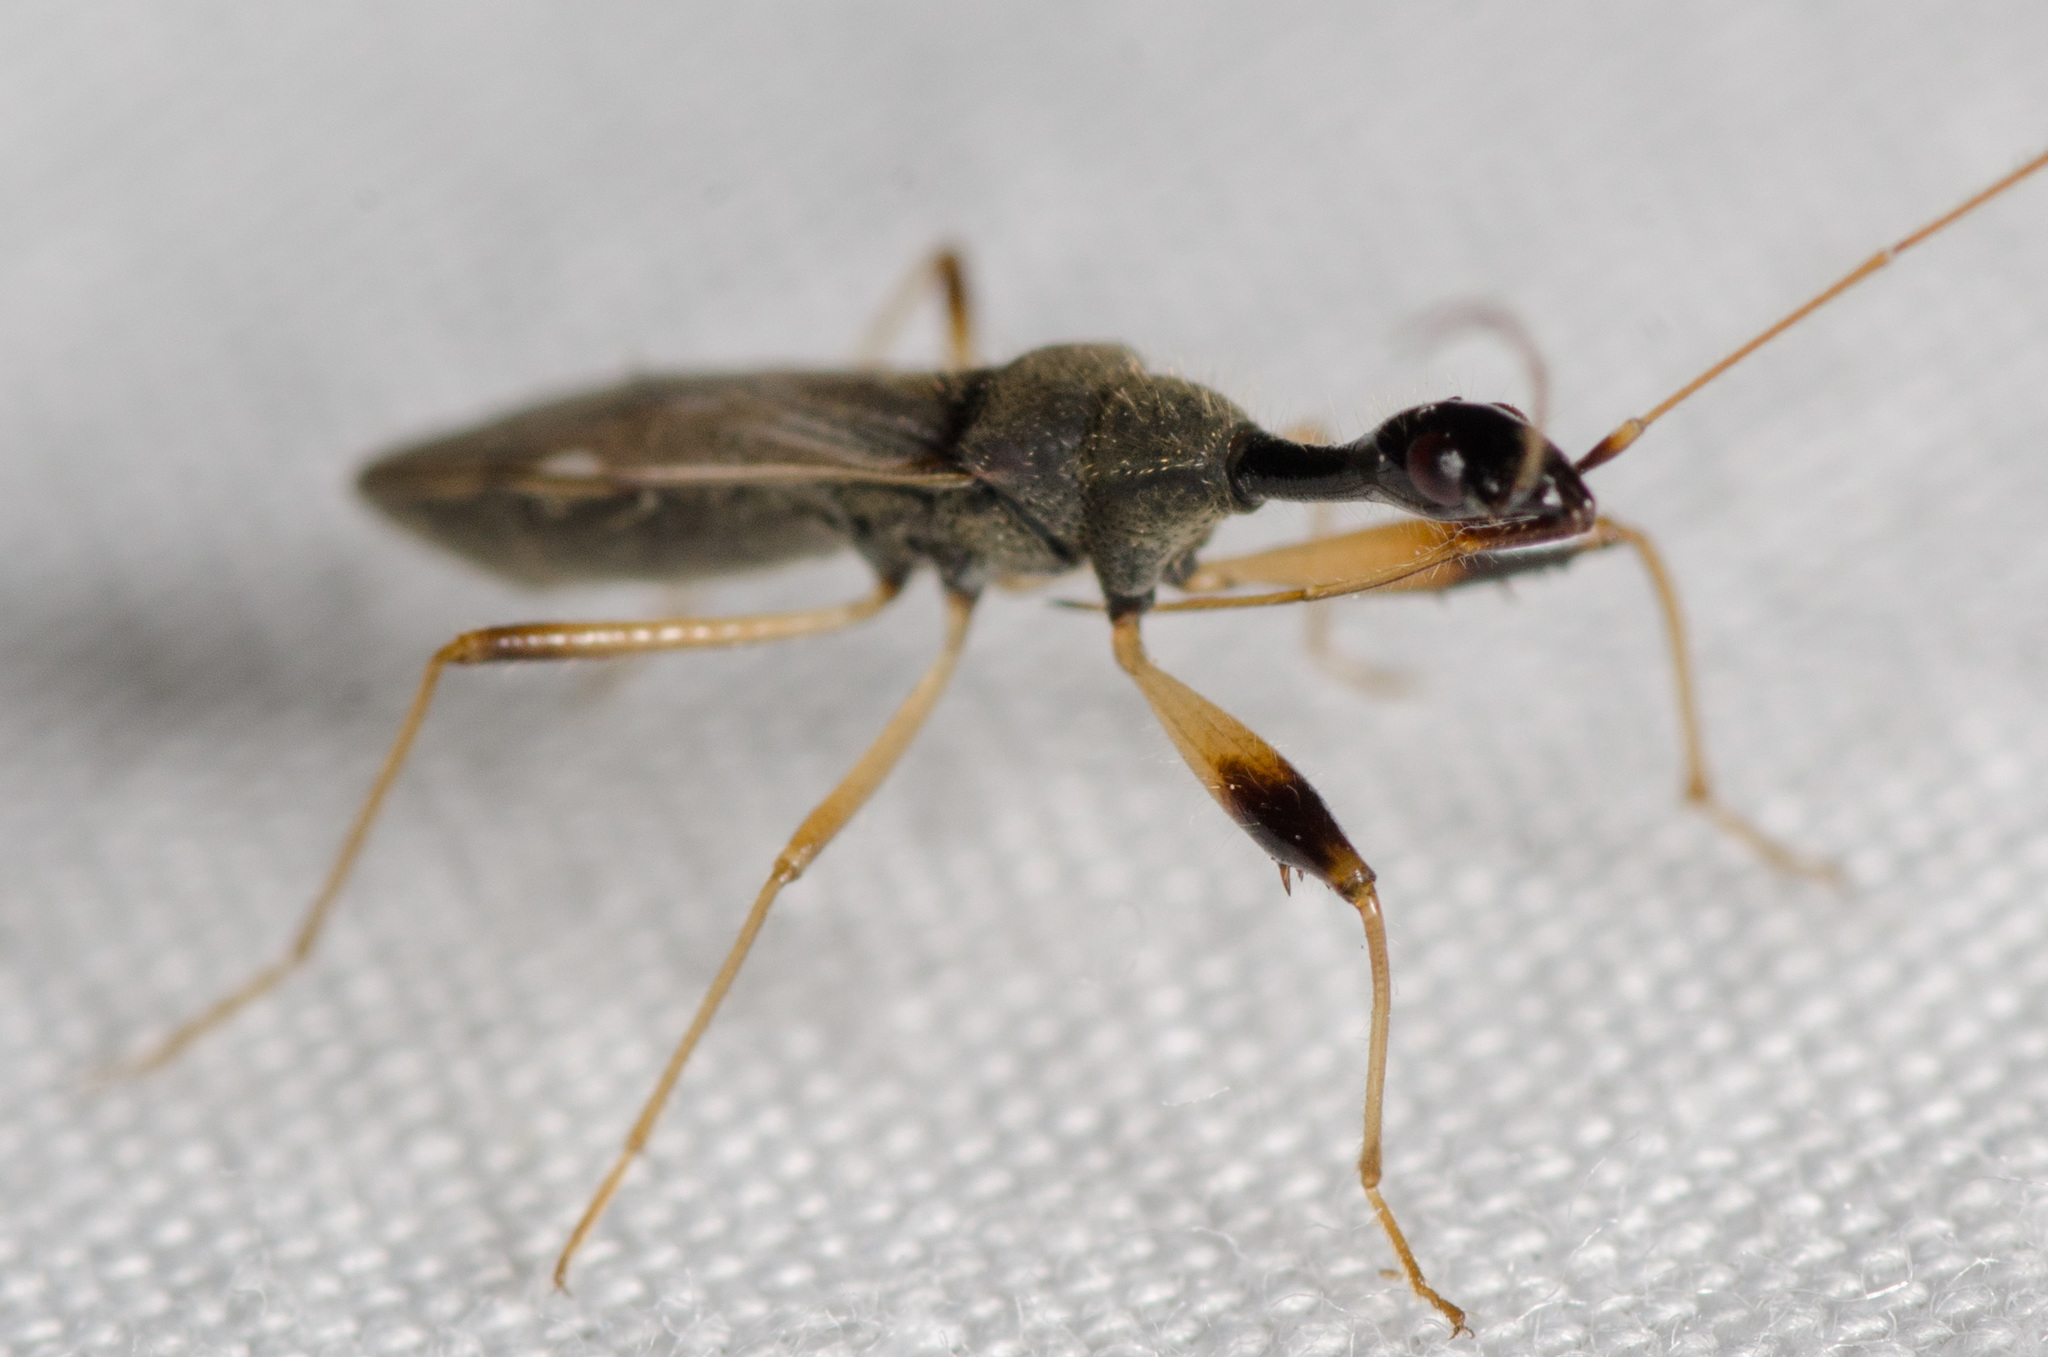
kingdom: Animalia
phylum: Arthropoda
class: Insecta
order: Hemiptera
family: Rhyparochromidae
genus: Myodocha
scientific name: Myodocha serripes
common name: Long-necked seed bug
